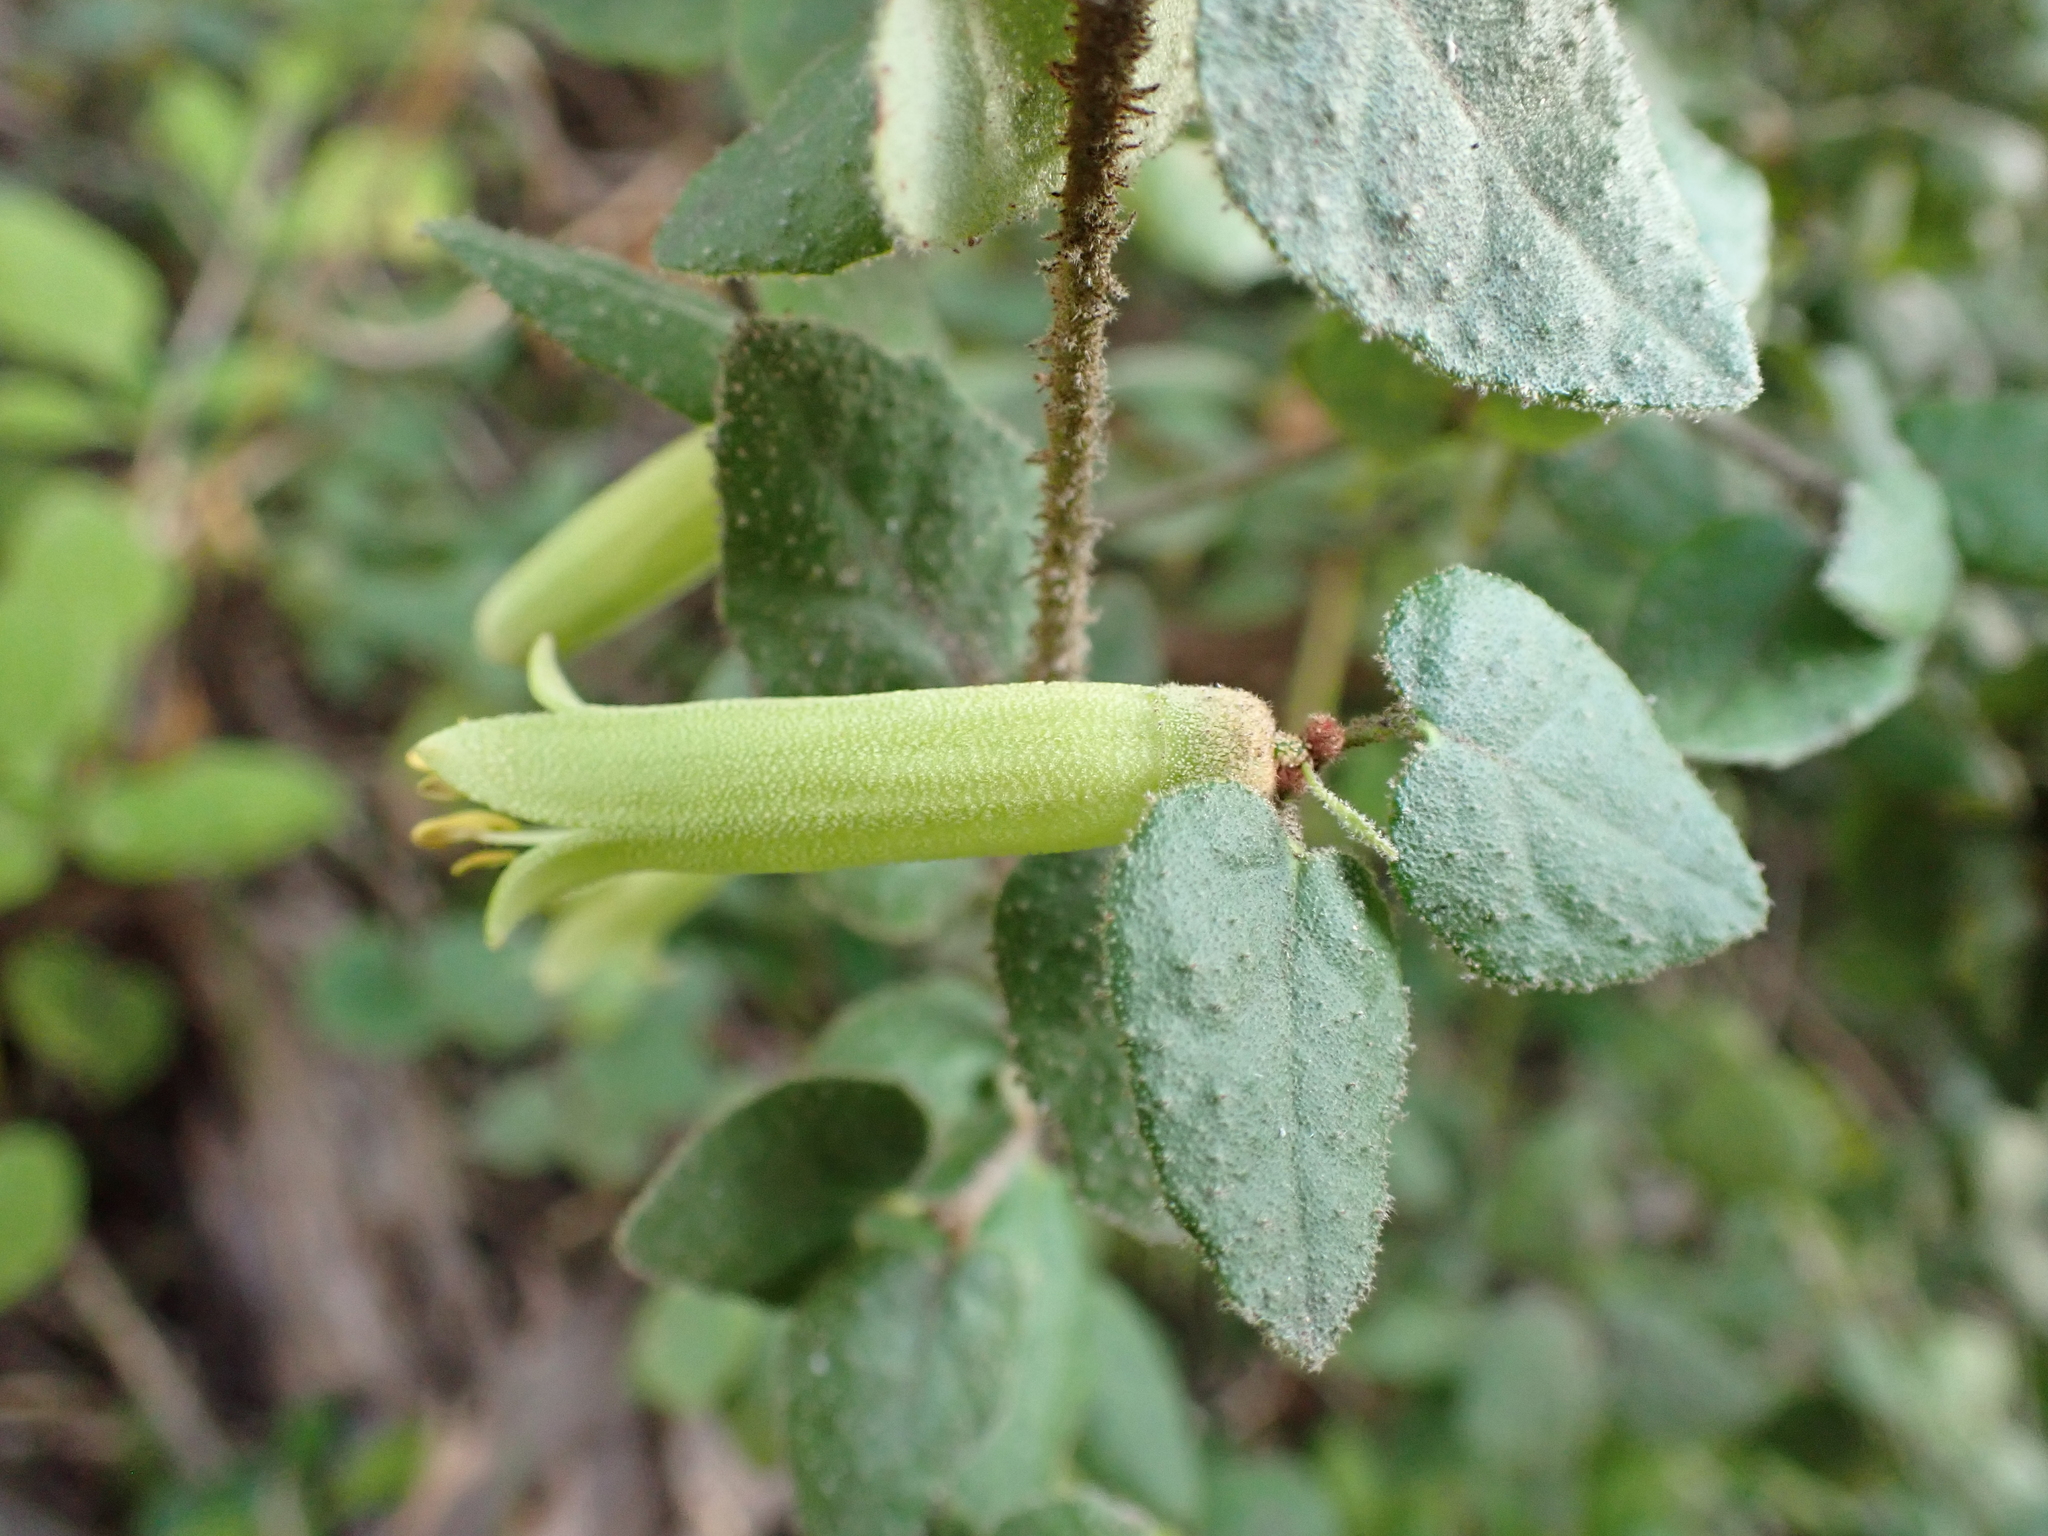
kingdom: Plantae
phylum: Tracheophyta
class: Magnoliopsida
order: Sapindales
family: Rutaceae
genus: Correa
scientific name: Correa reflexa
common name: Common correa
